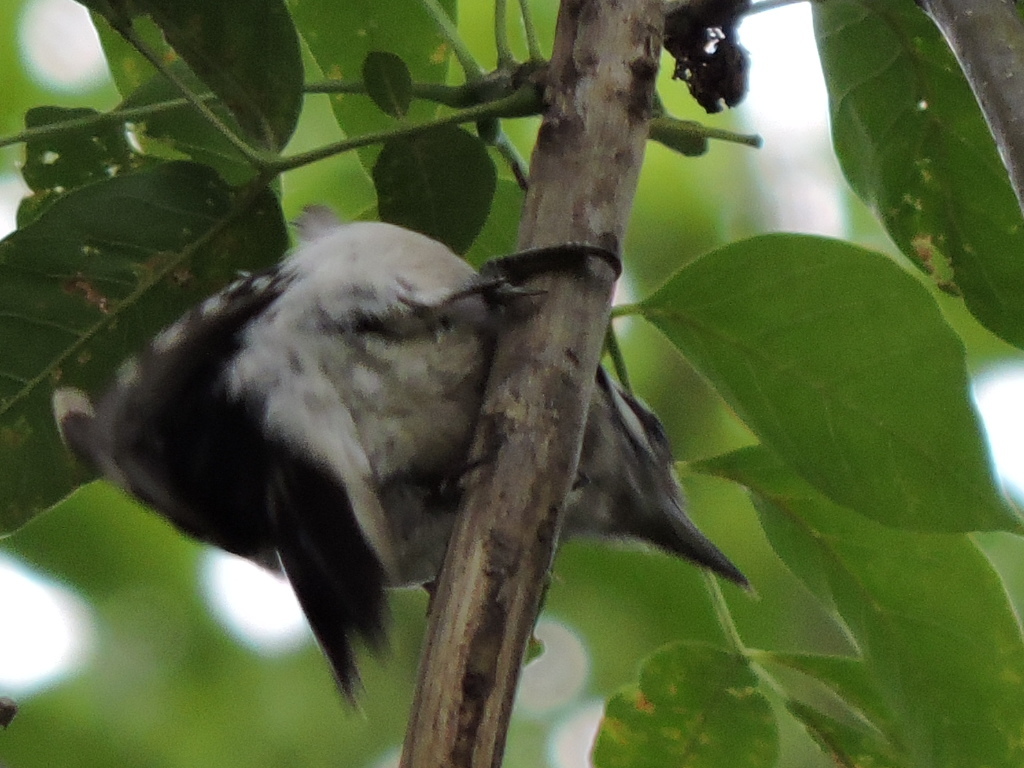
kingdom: Animalia
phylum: Chordata
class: Aves
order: Piciformes
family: Picidae
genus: Dryobates
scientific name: Dryobates pubescens
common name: Downy woodpecker
